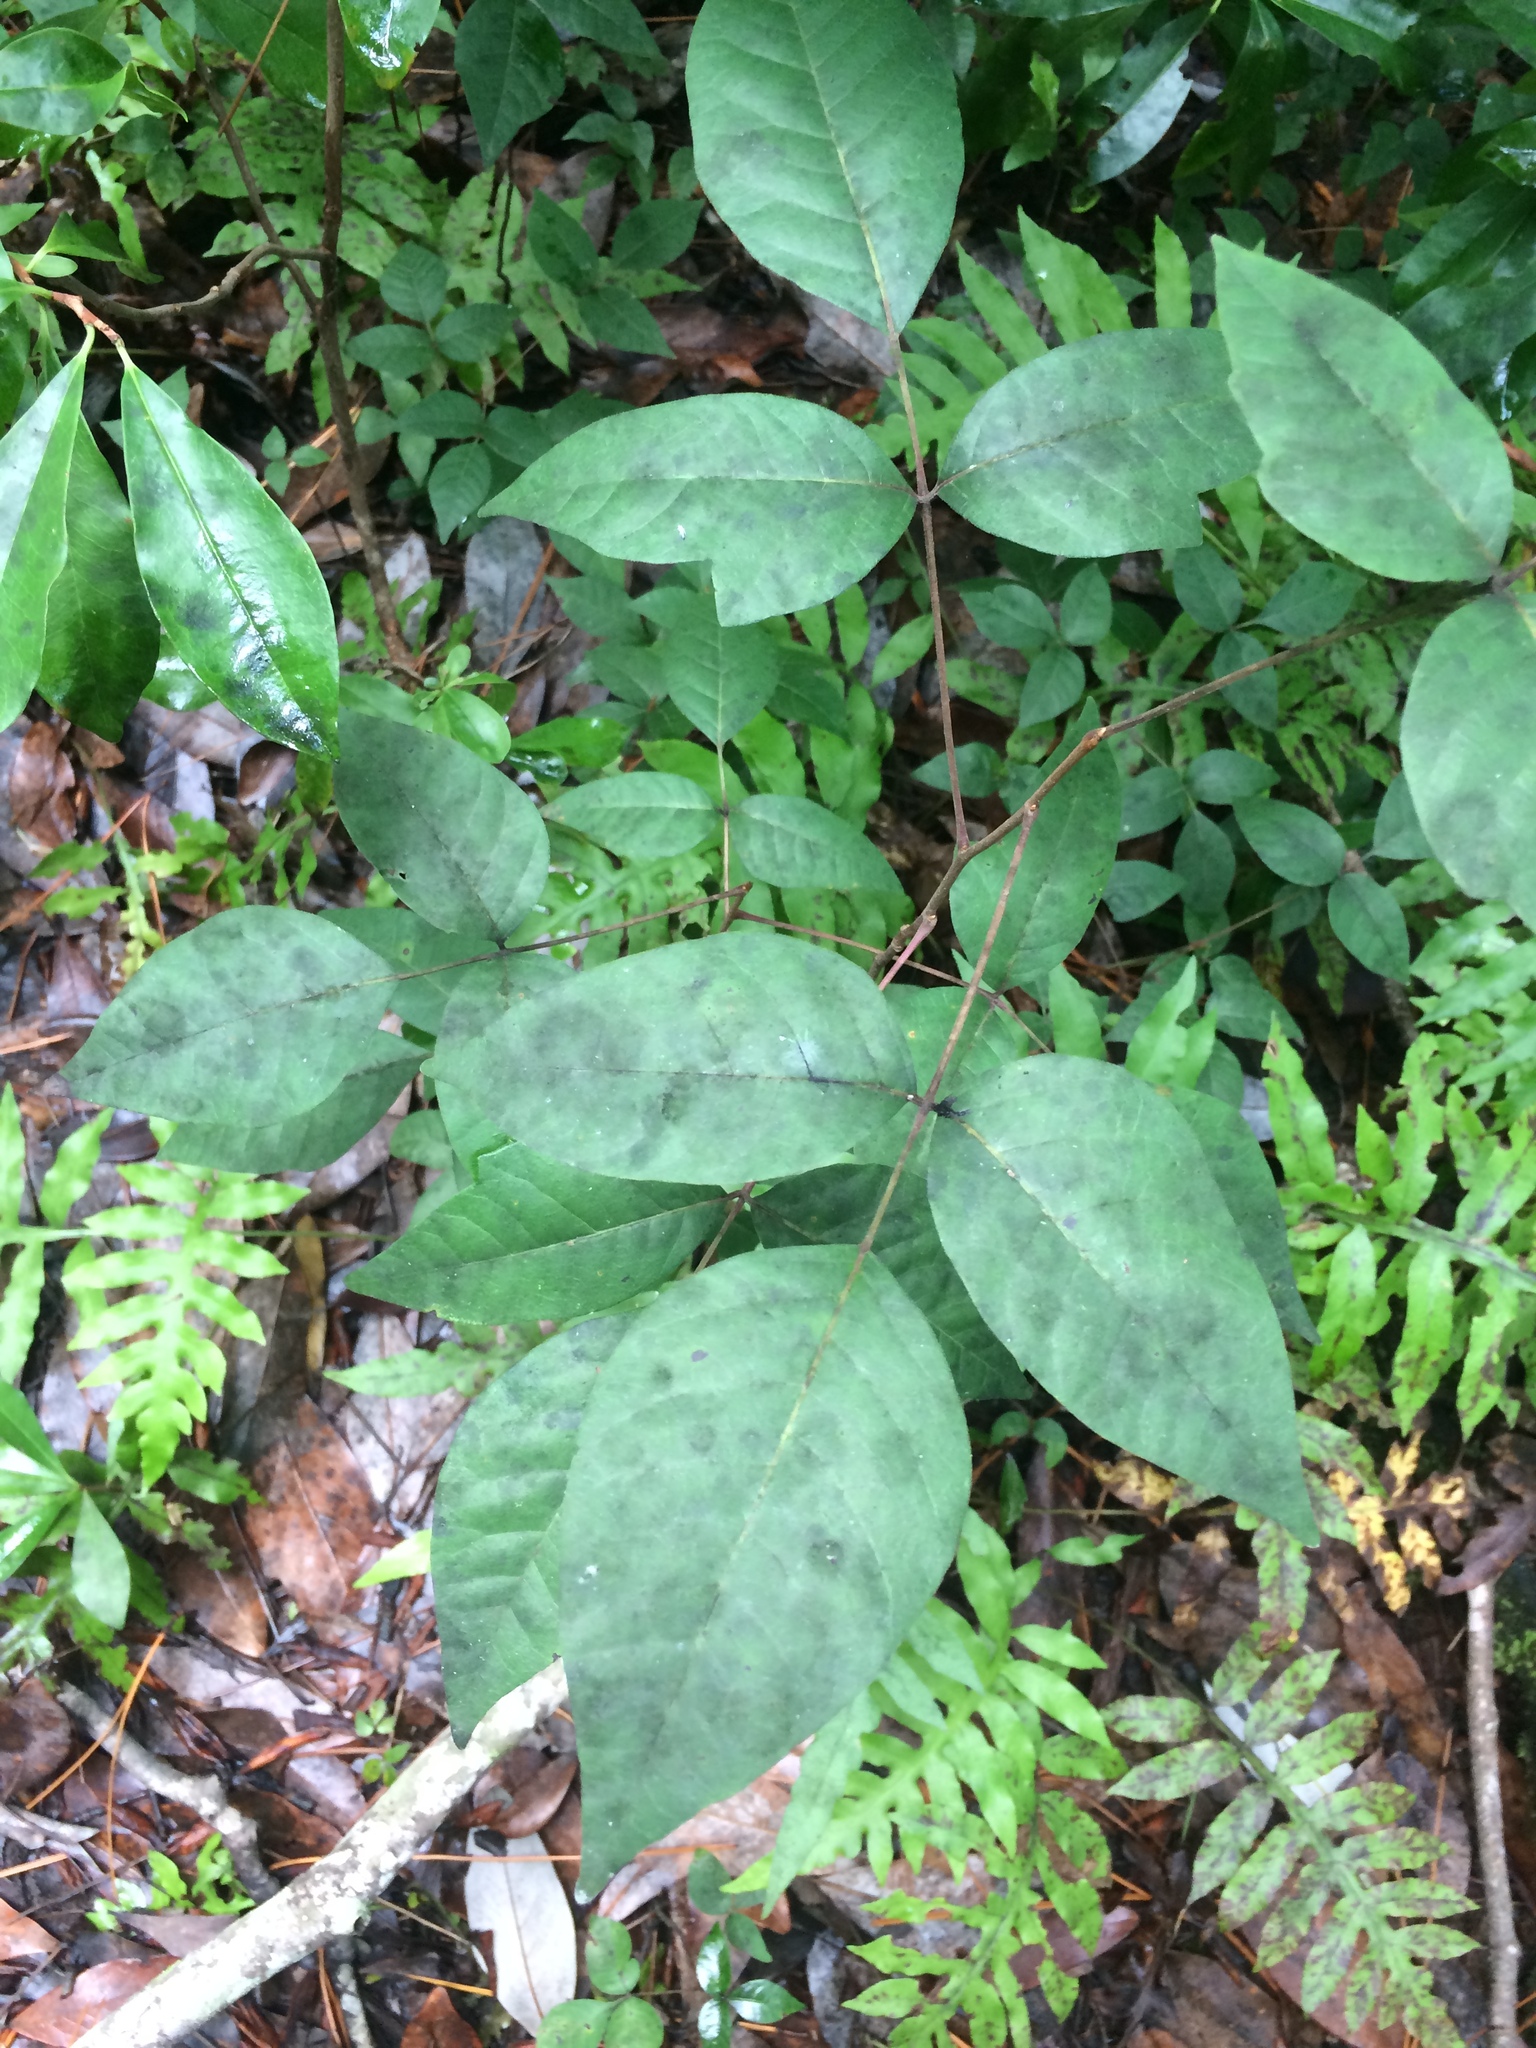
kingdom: Plantae
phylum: Tracheophyta
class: Magnoliopsida
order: Sapindales
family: Anacardiaceae
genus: Toxicodendron
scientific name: Toxicodendron radicans
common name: Poison ivy
